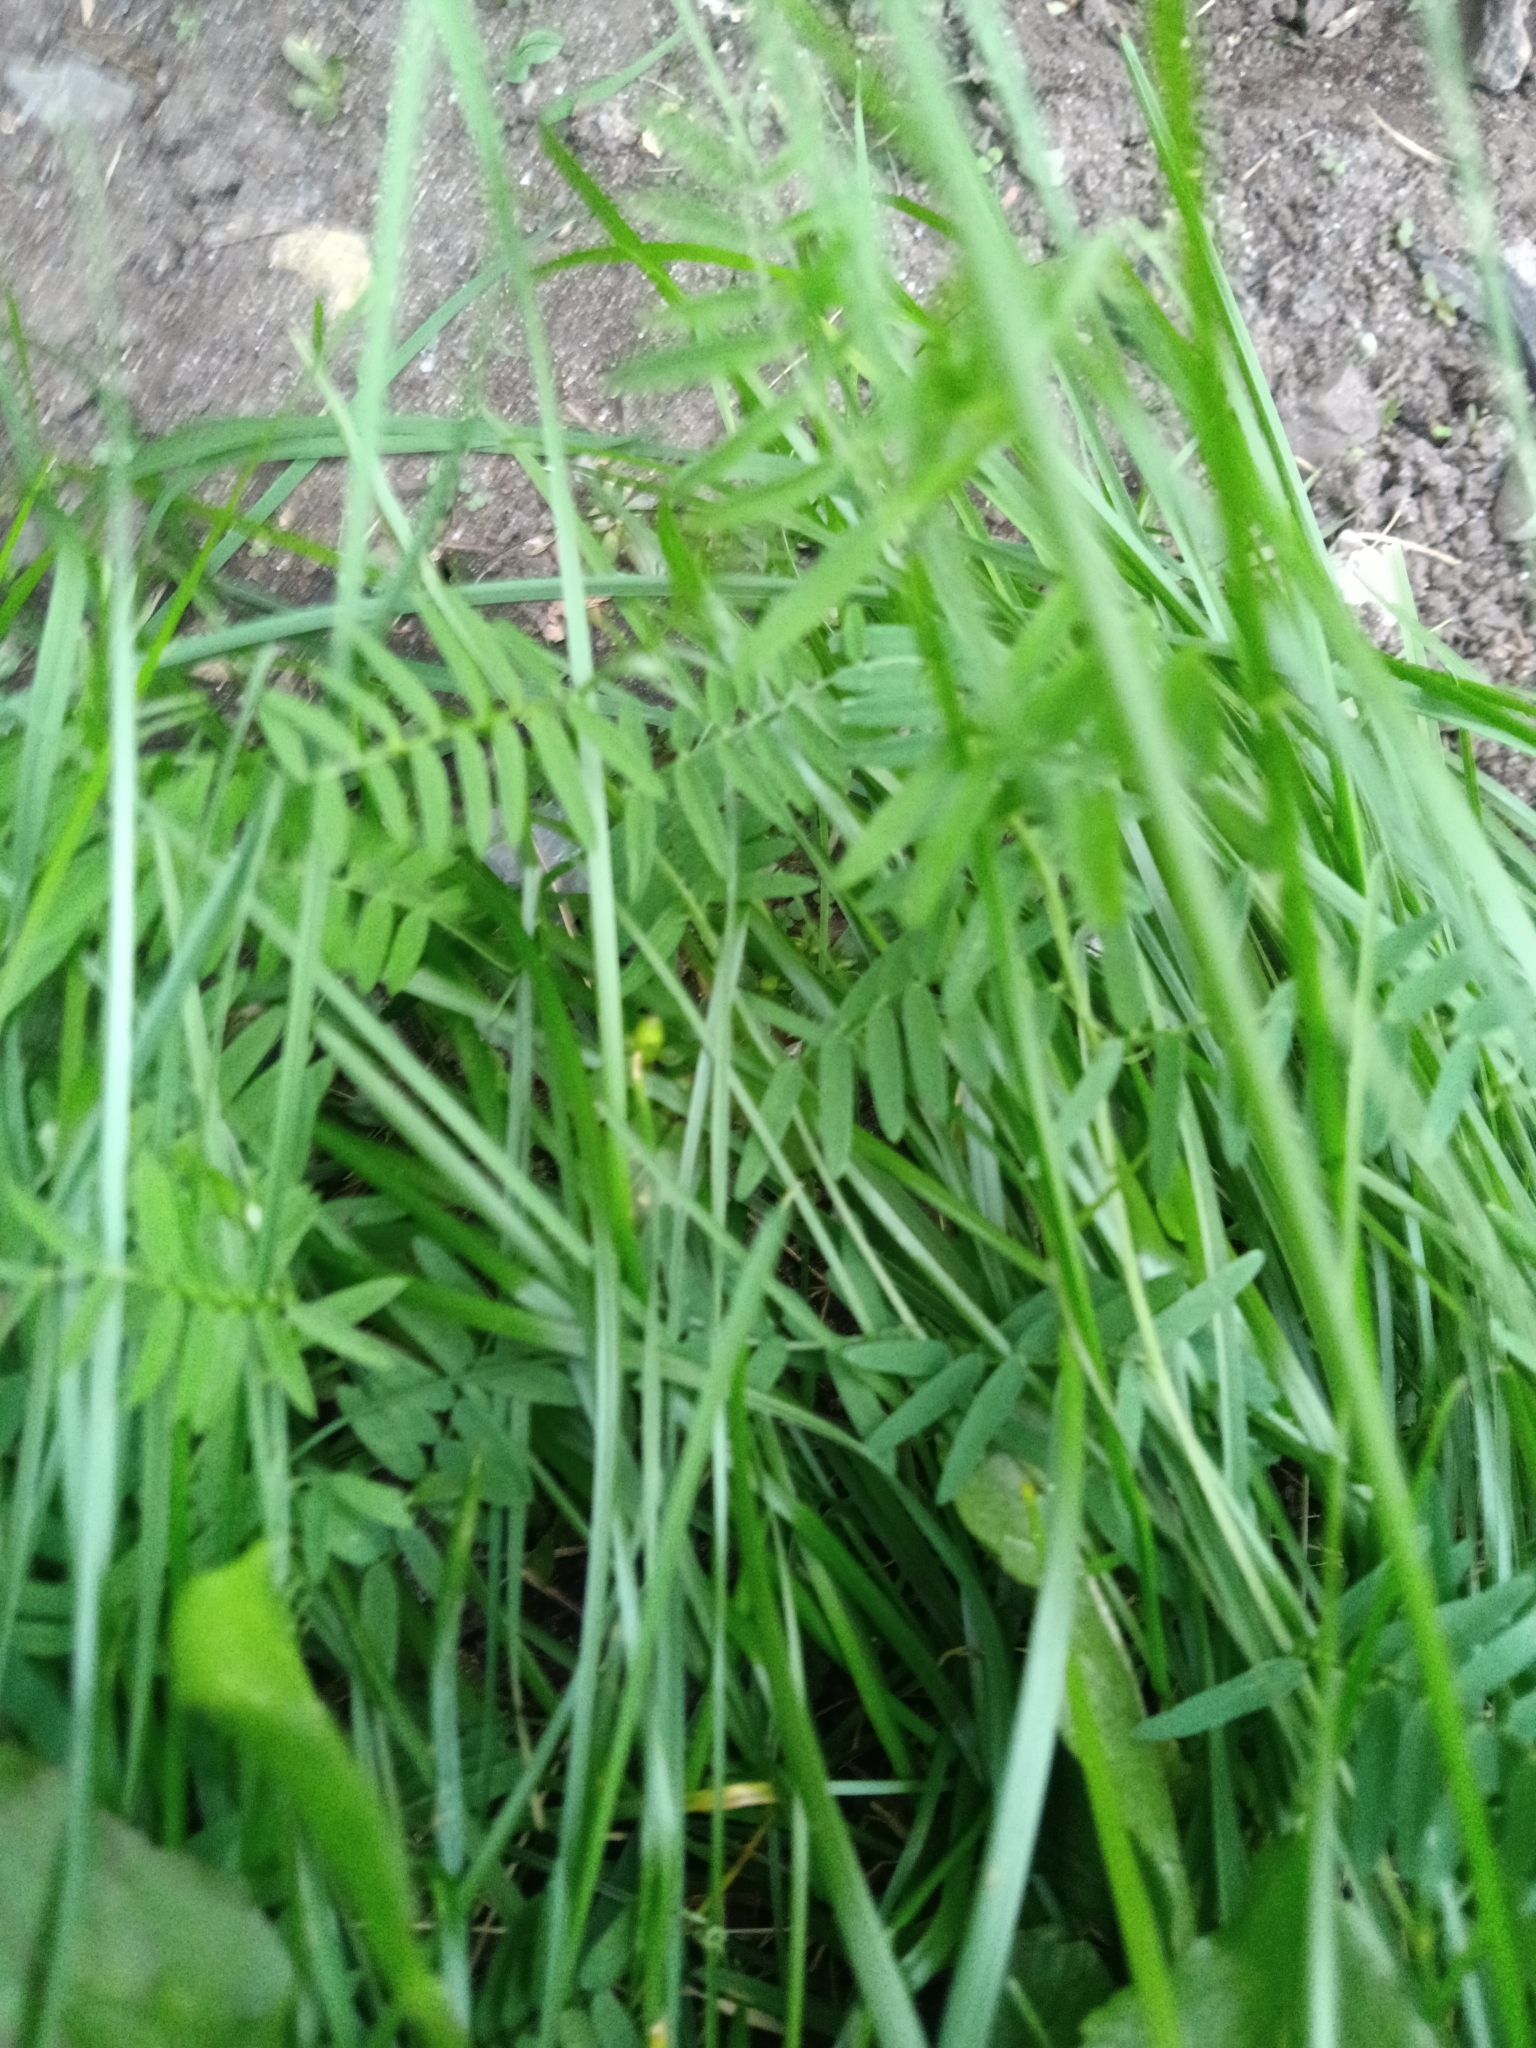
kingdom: Plantae
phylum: Tracheophyta
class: Magnoliopsida
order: Fabales
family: Fabaceae
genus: Vicia
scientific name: Vicia cracca
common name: Bird vetch
